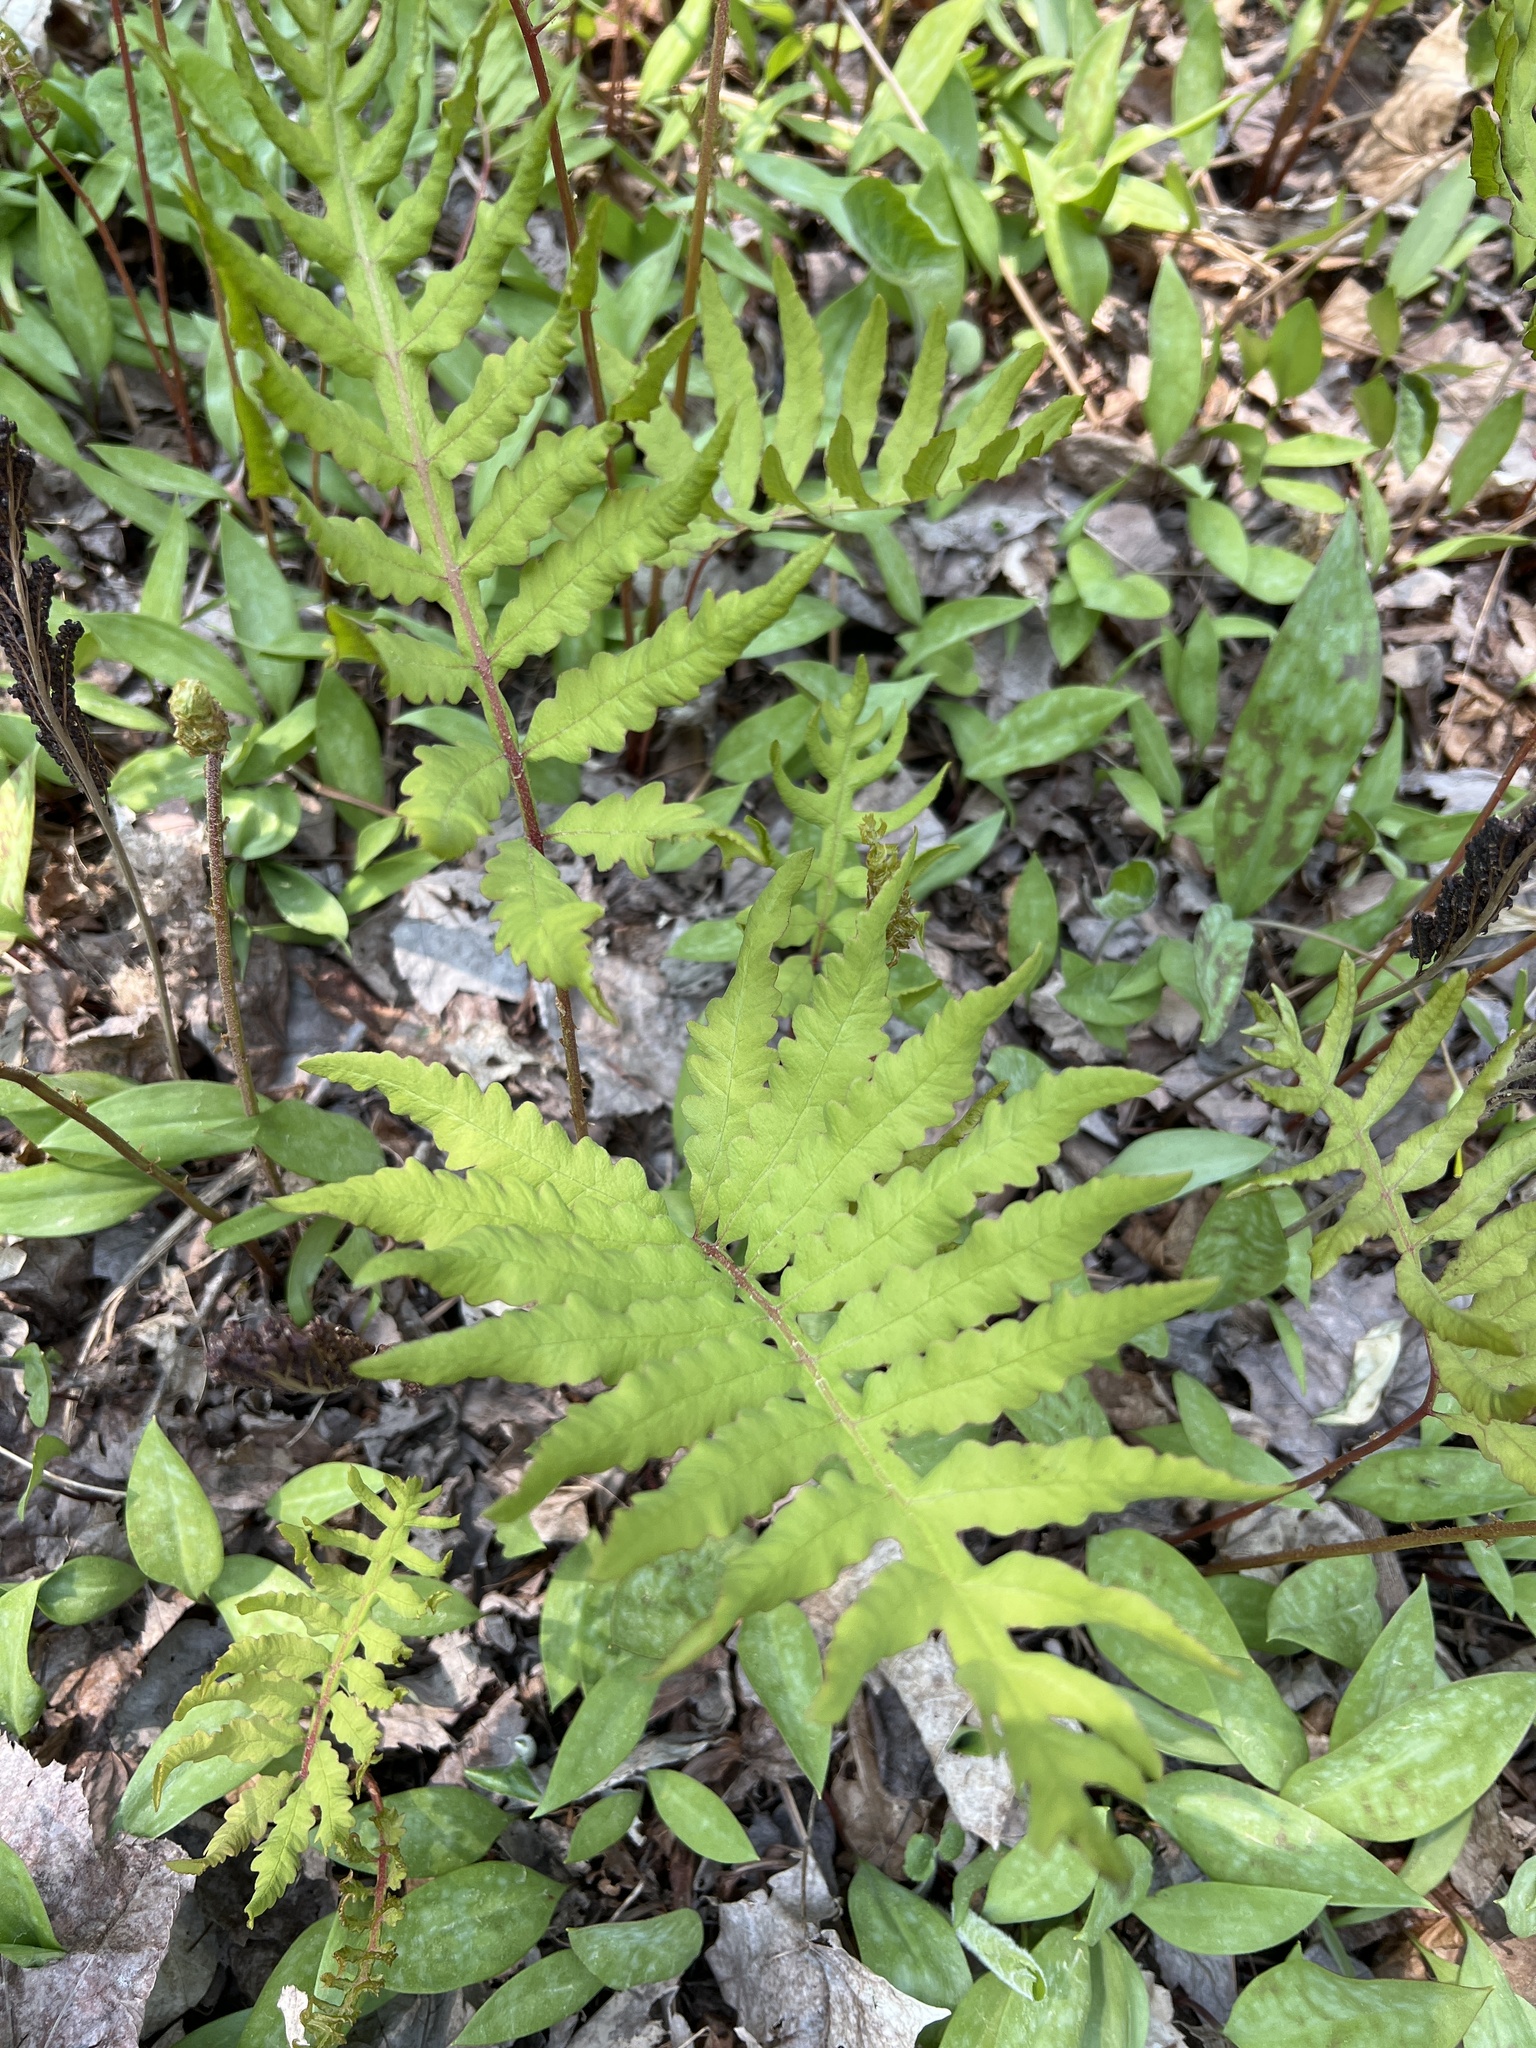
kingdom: Plantae
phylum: Tracheophyta
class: Polypodiopsida
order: Polypodiales
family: Onocleaceae
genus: Onoclea
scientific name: Onoclea sensibilis
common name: Sensitive fern
